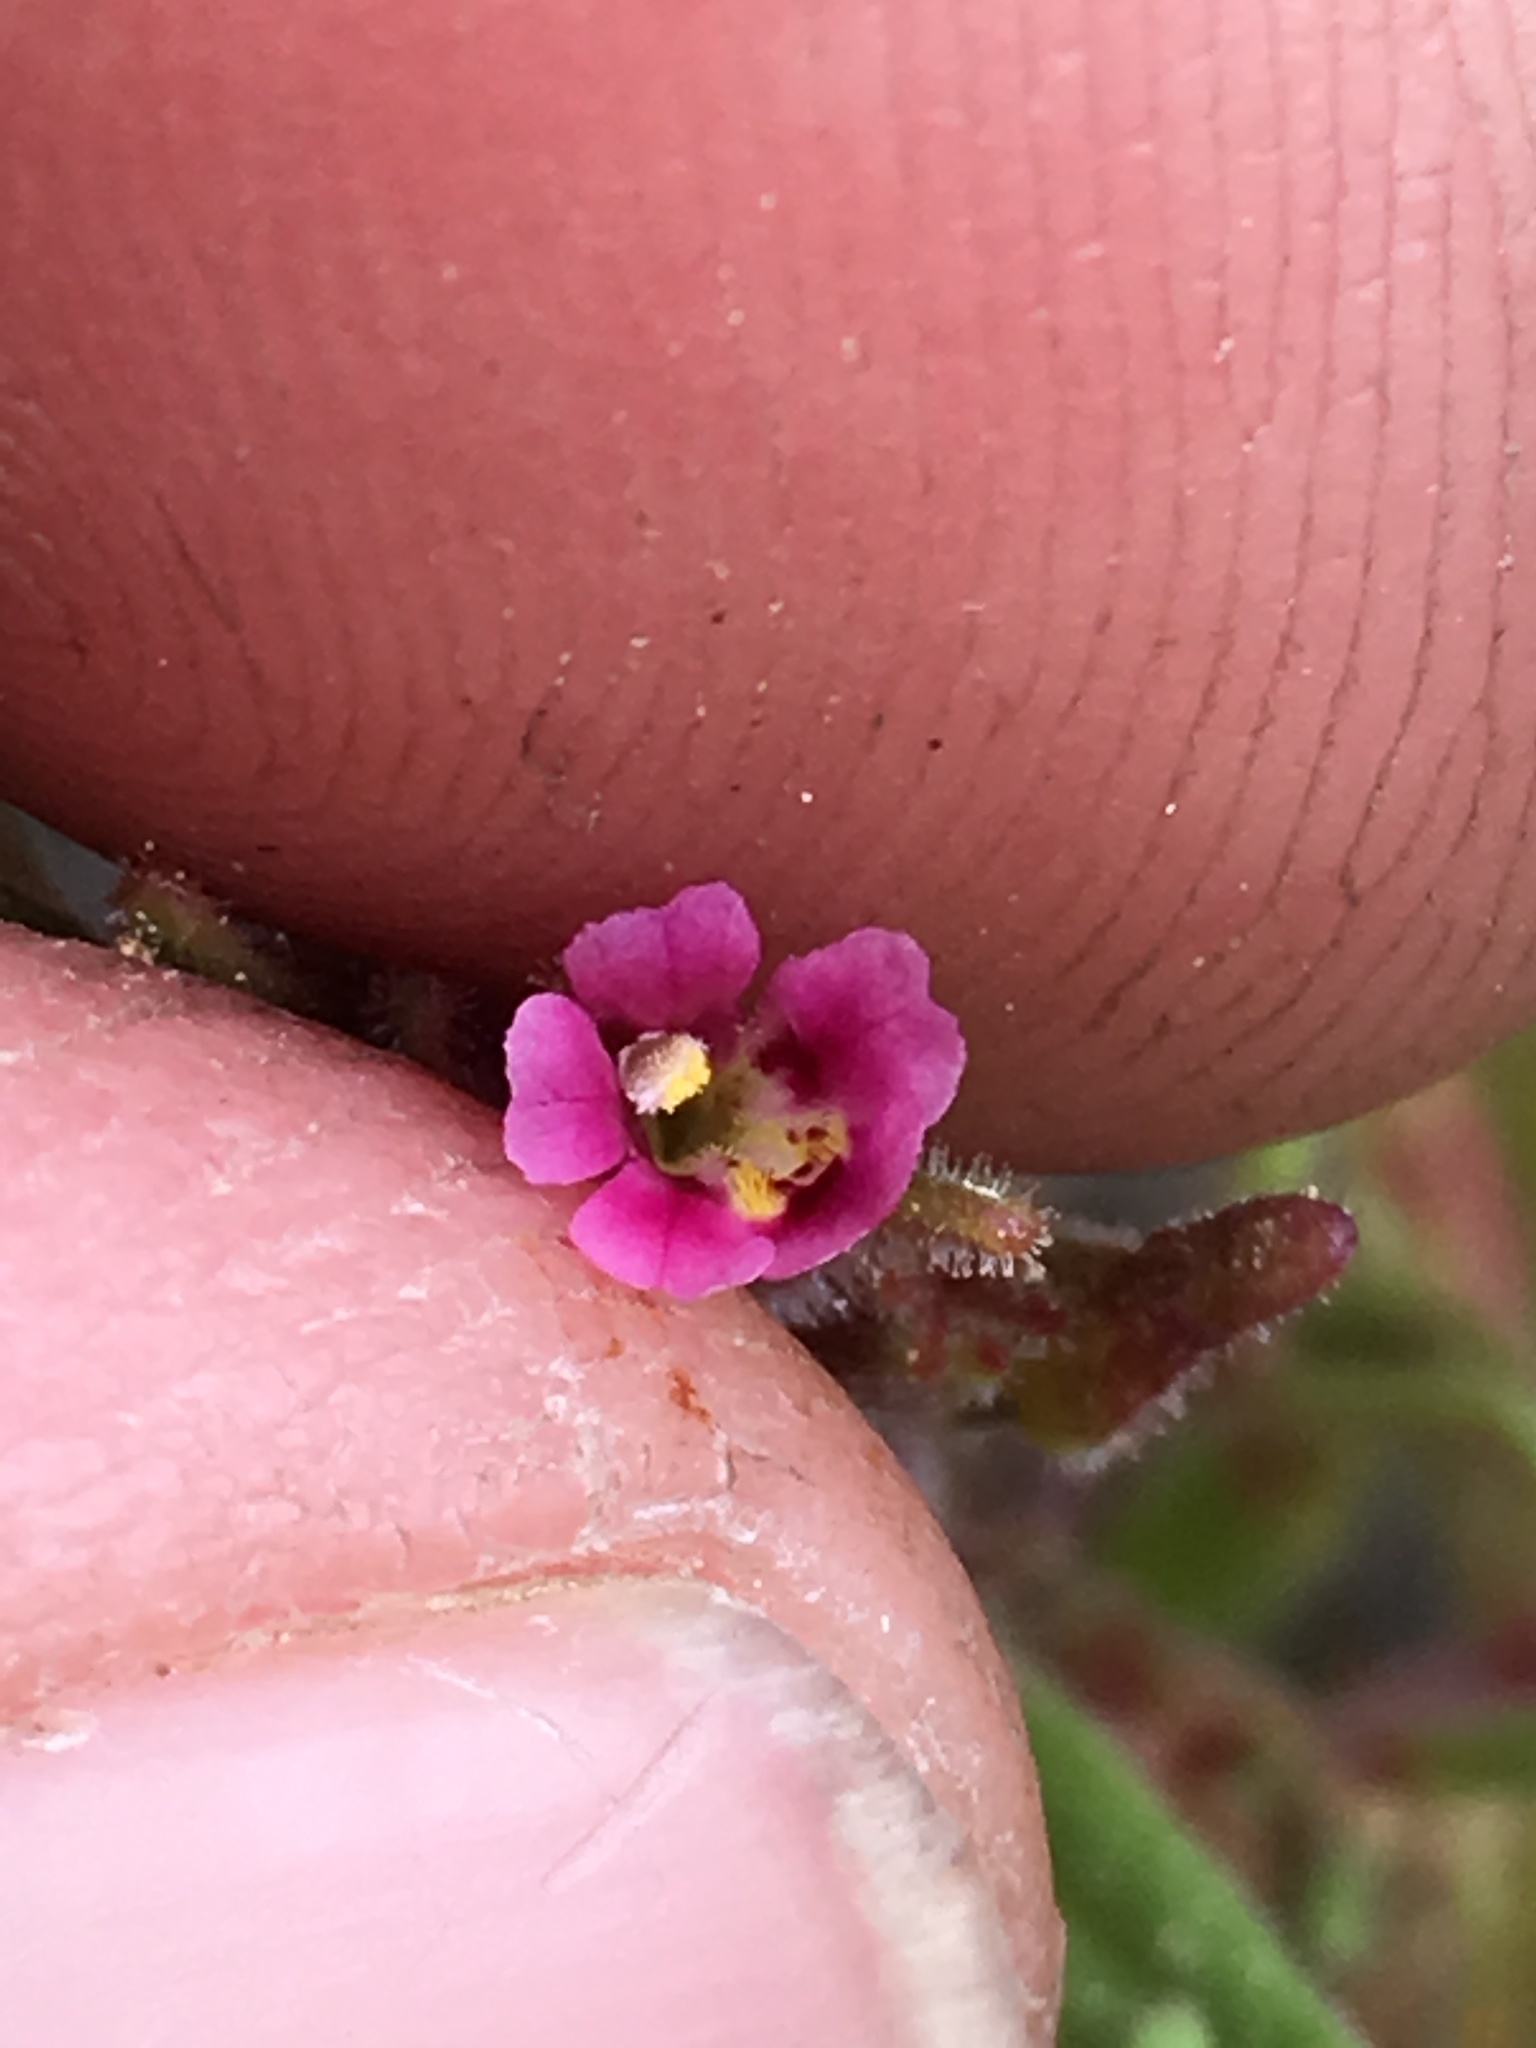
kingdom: Plantae
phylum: Tracheophyta
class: Magnoliopsida
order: Lamiales
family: Phrymaceae
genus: Erythranthe
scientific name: Erythranthe breweri
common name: Brewer's monkeyflower
